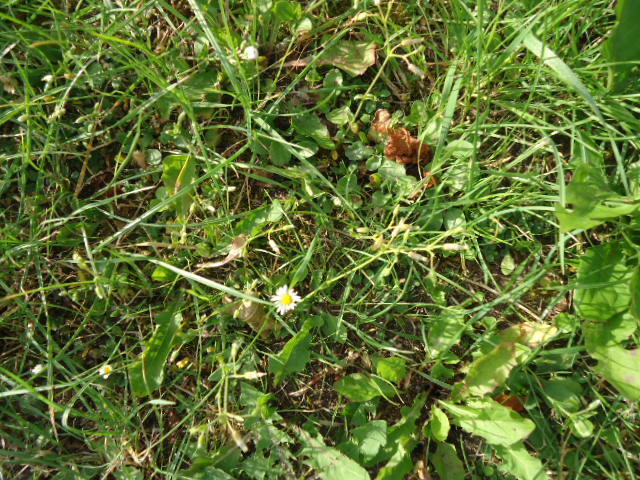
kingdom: Plantae
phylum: Tracheophyta
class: Magnoliopsida
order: Asterales
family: Asteraceae
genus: Bellis
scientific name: Bellis perennis
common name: Lawndaisy
